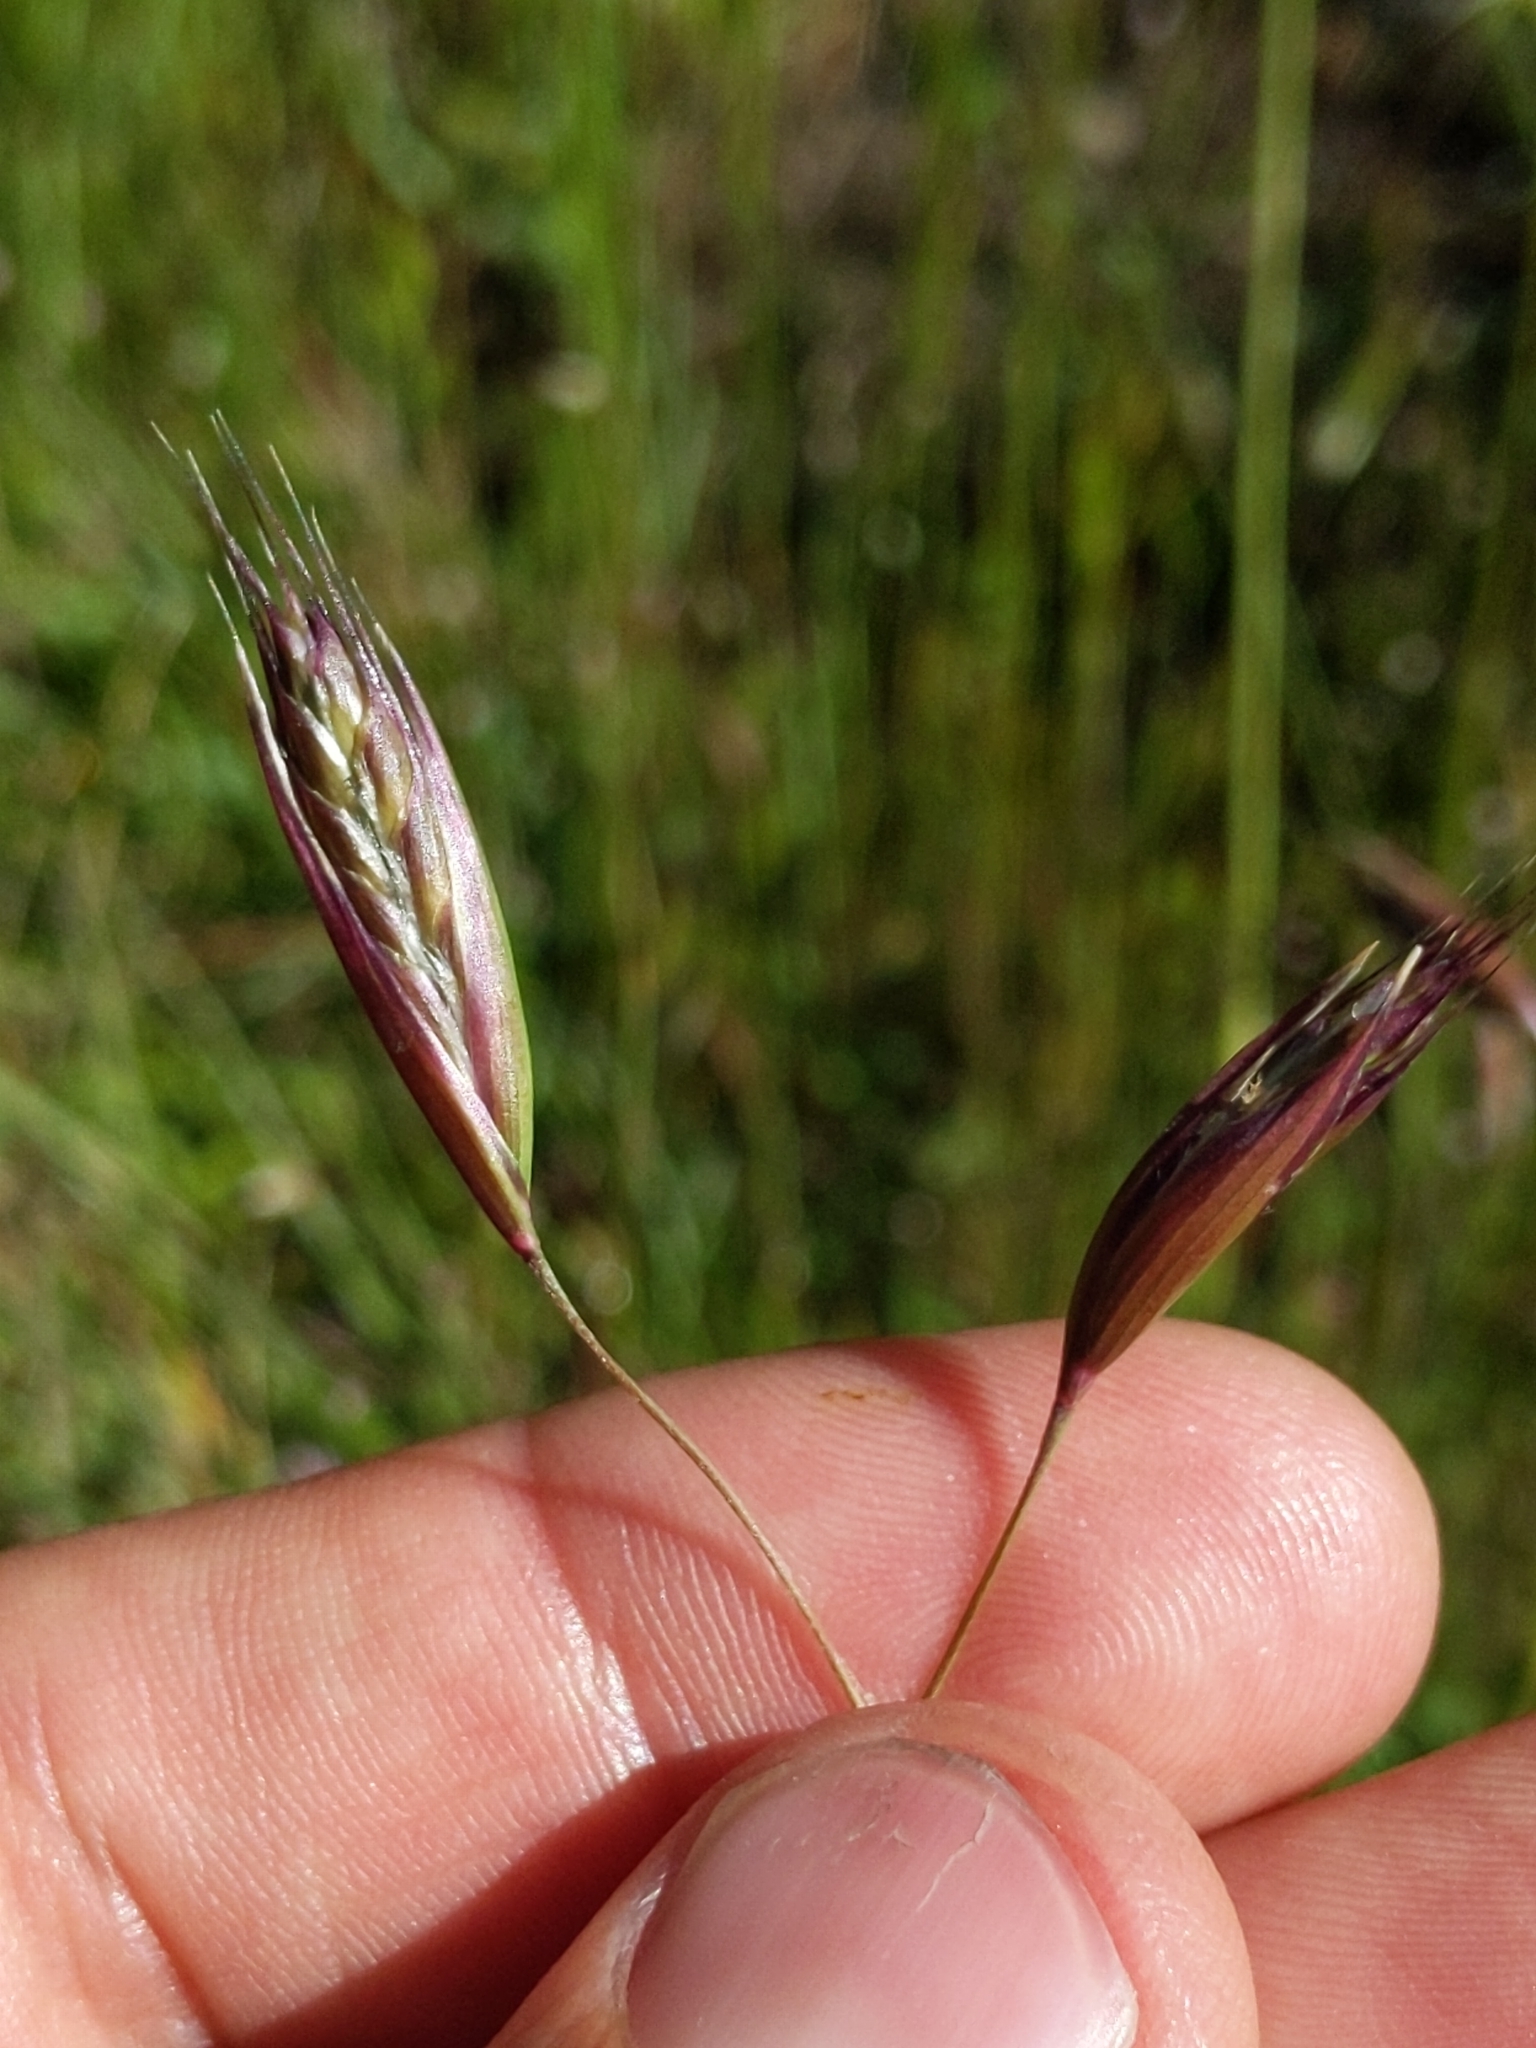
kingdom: Plantae
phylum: Tracheophyta
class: Liliopsida
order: Poales
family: Poaceae
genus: Danthonia
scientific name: Danthonia californica
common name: California oat grass
